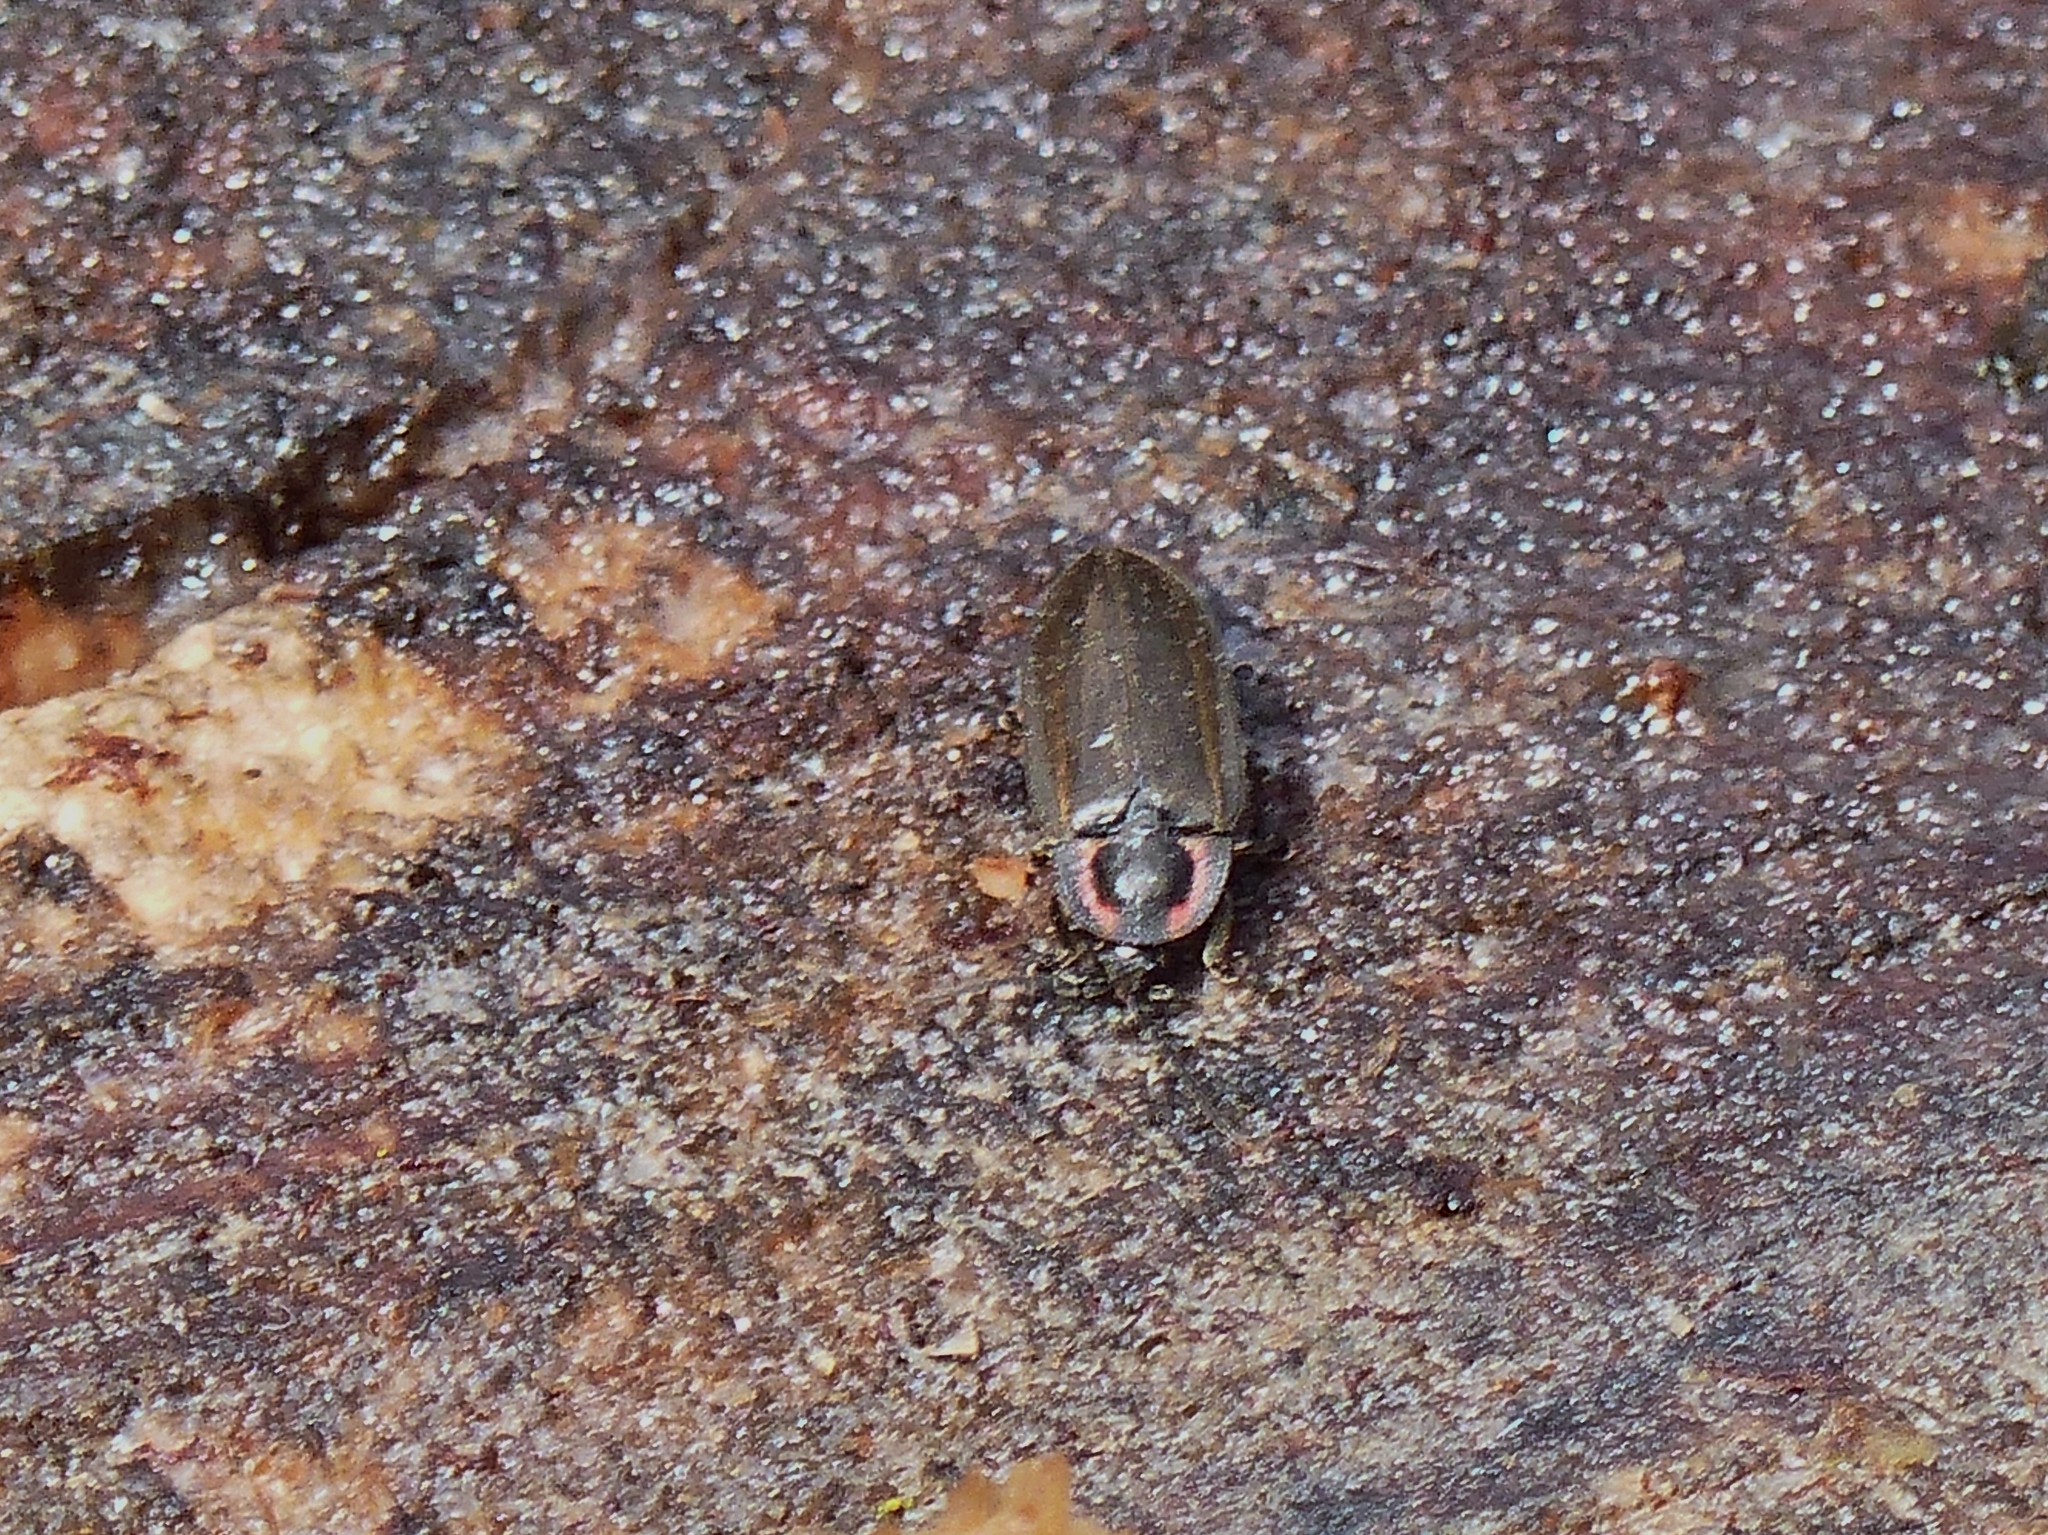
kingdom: Animalia
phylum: Arthropoda
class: Insecta
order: Coleoptera
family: Lampyridae
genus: Photinus
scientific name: Photinus corrusca
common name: Winter firefly
